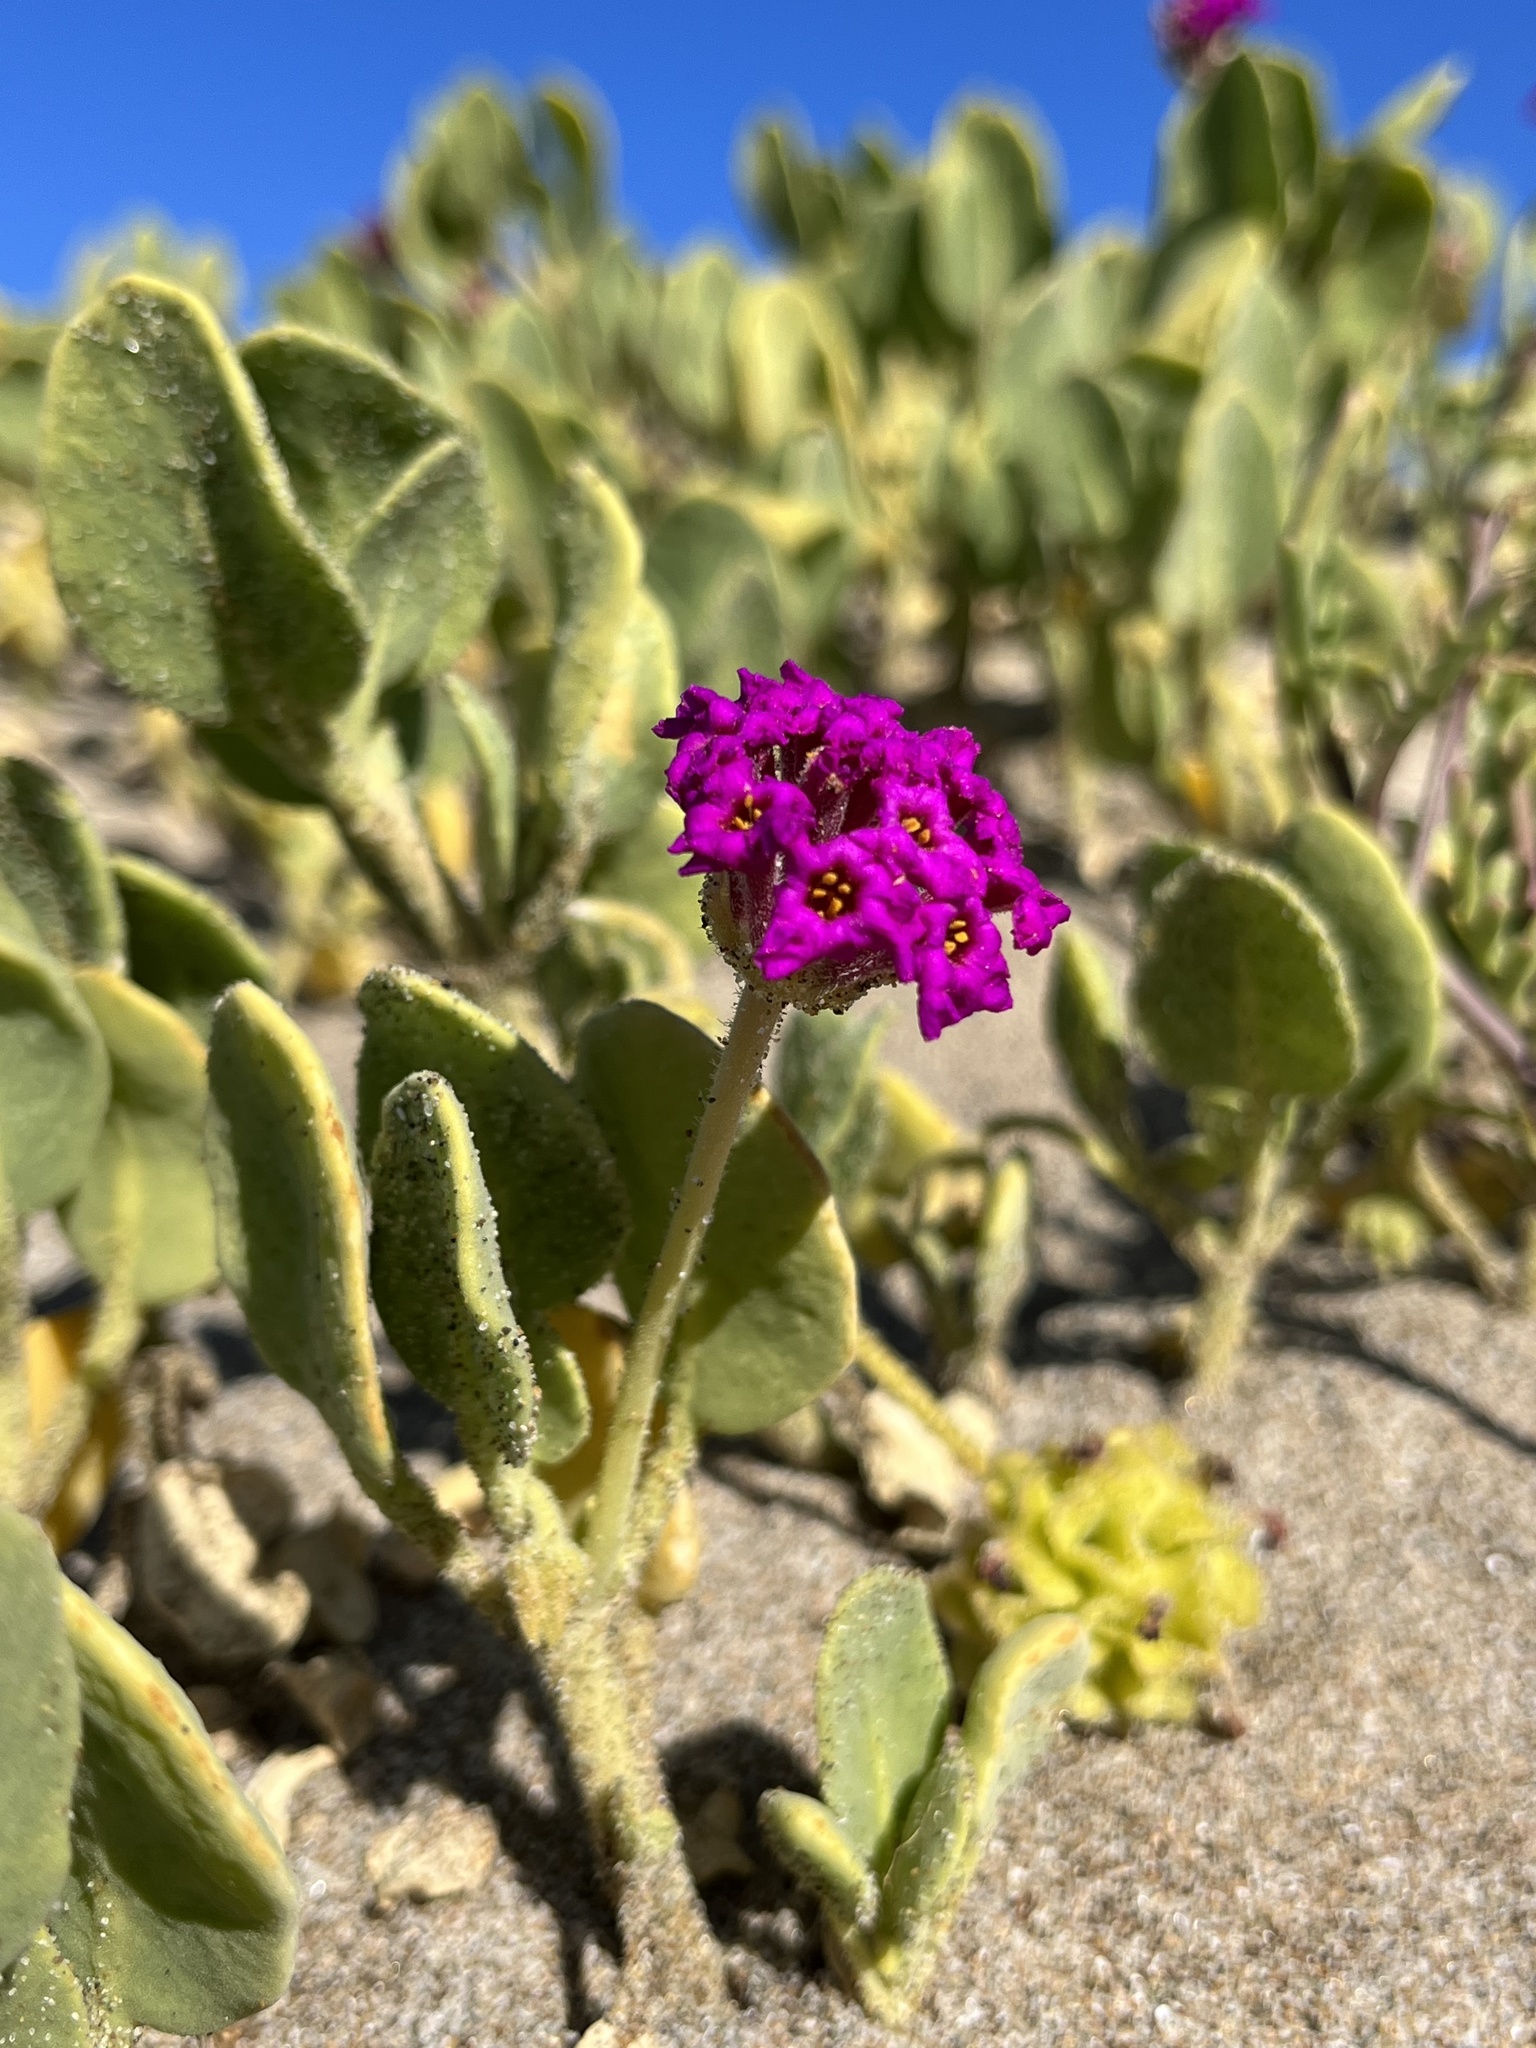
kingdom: Plantae
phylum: Tracheophyta
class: Magnoliopsida
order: Caryophyllales
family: Nyctaginaceae
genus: Abronia
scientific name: Abronia maritima
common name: Red sand-verbena
